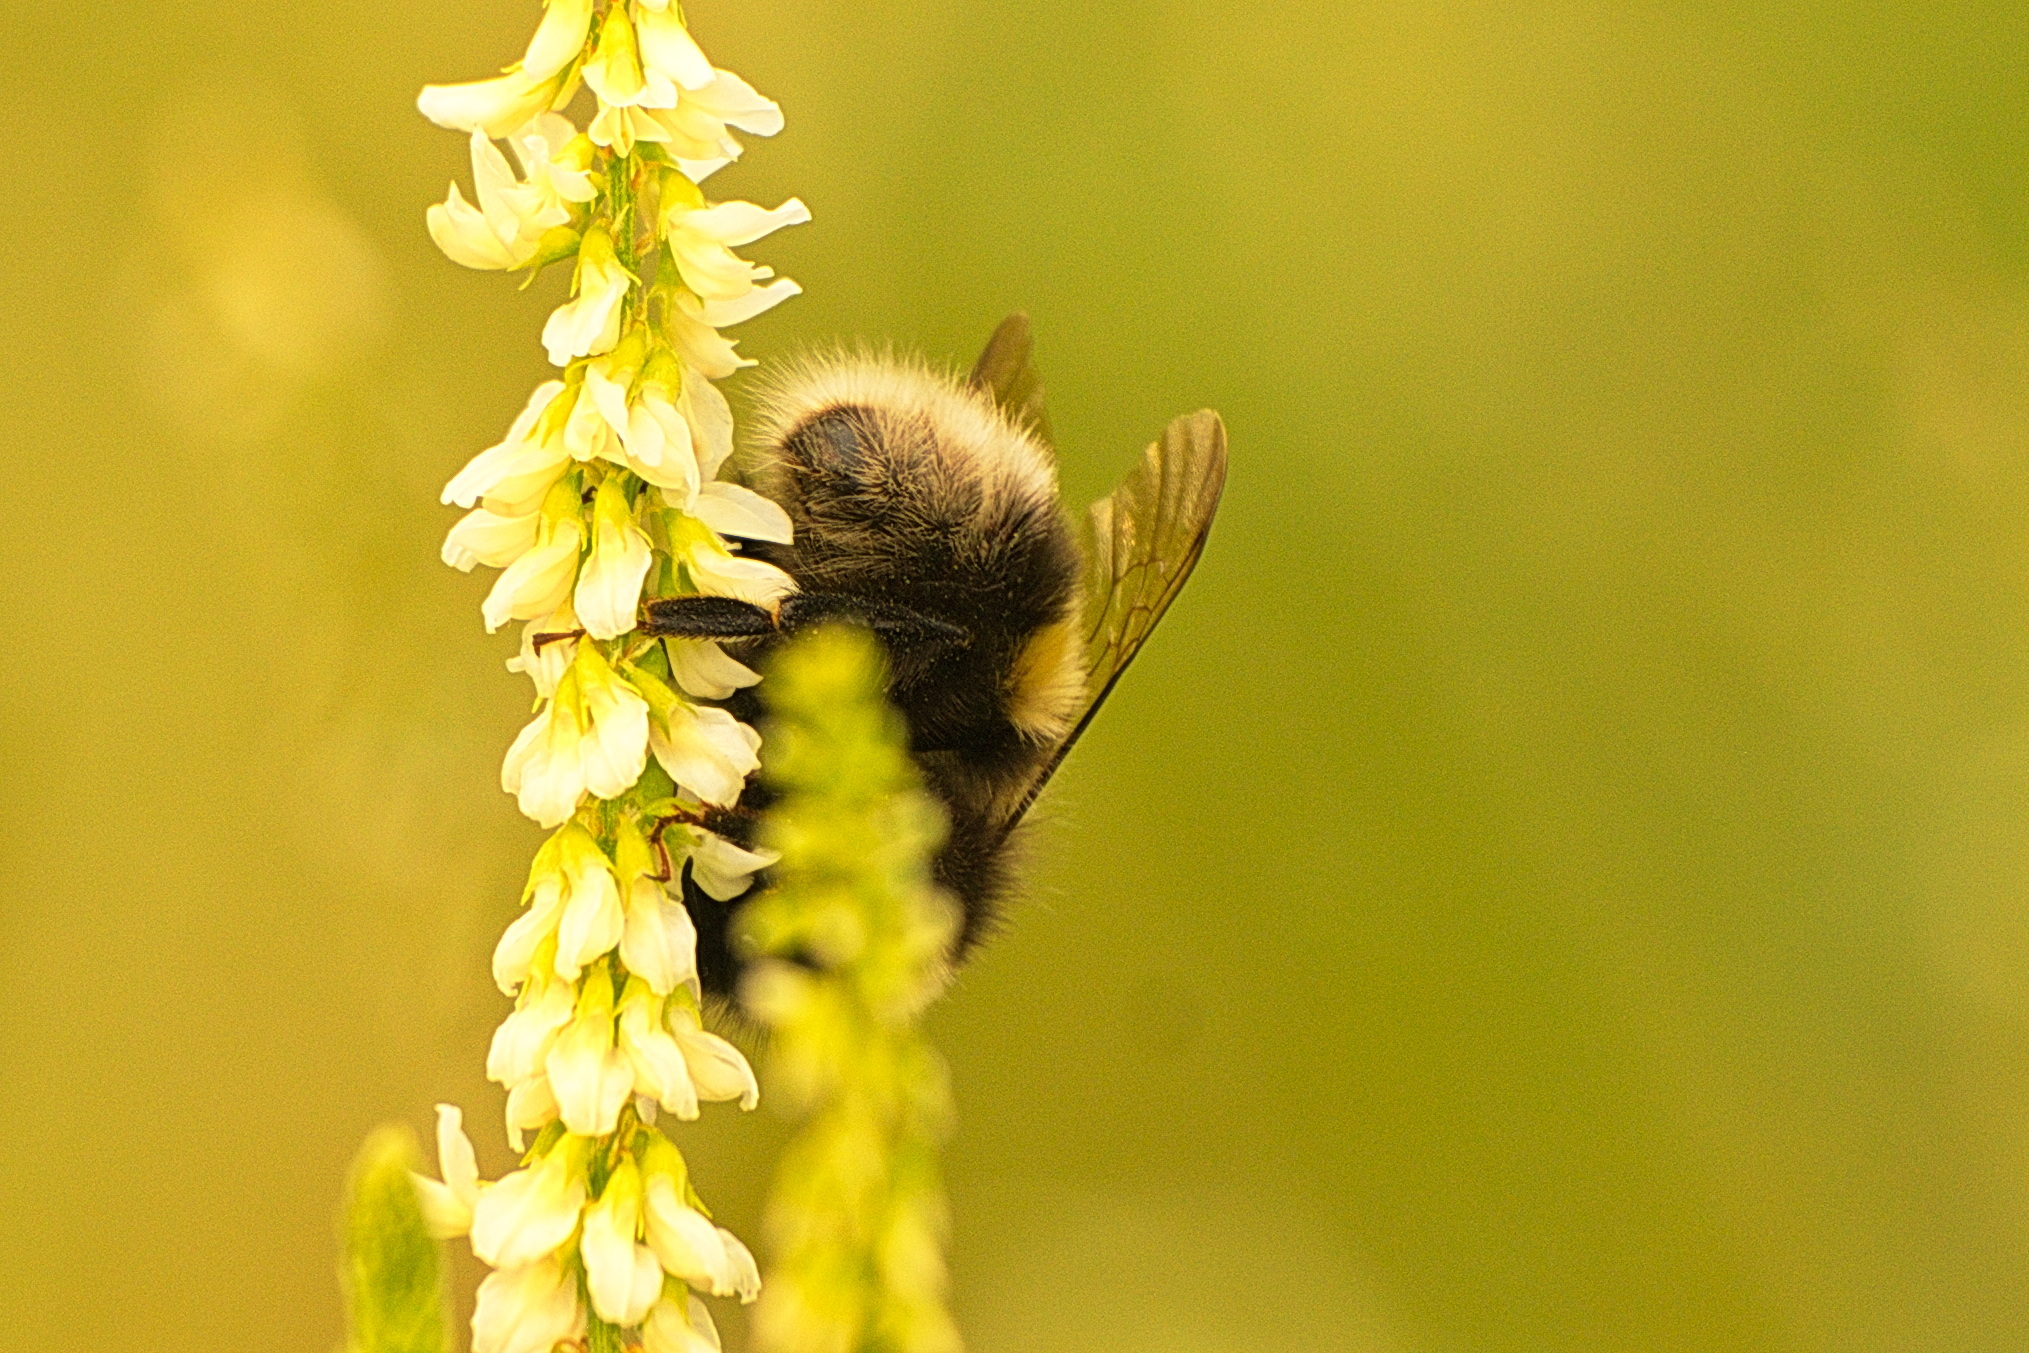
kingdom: Animalia
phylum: Arthropoda
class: Insecta
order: Hymenoptera
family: Apidae
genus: Bombus
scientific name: Bombus cryptarum
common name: Cryptic bumblebee
